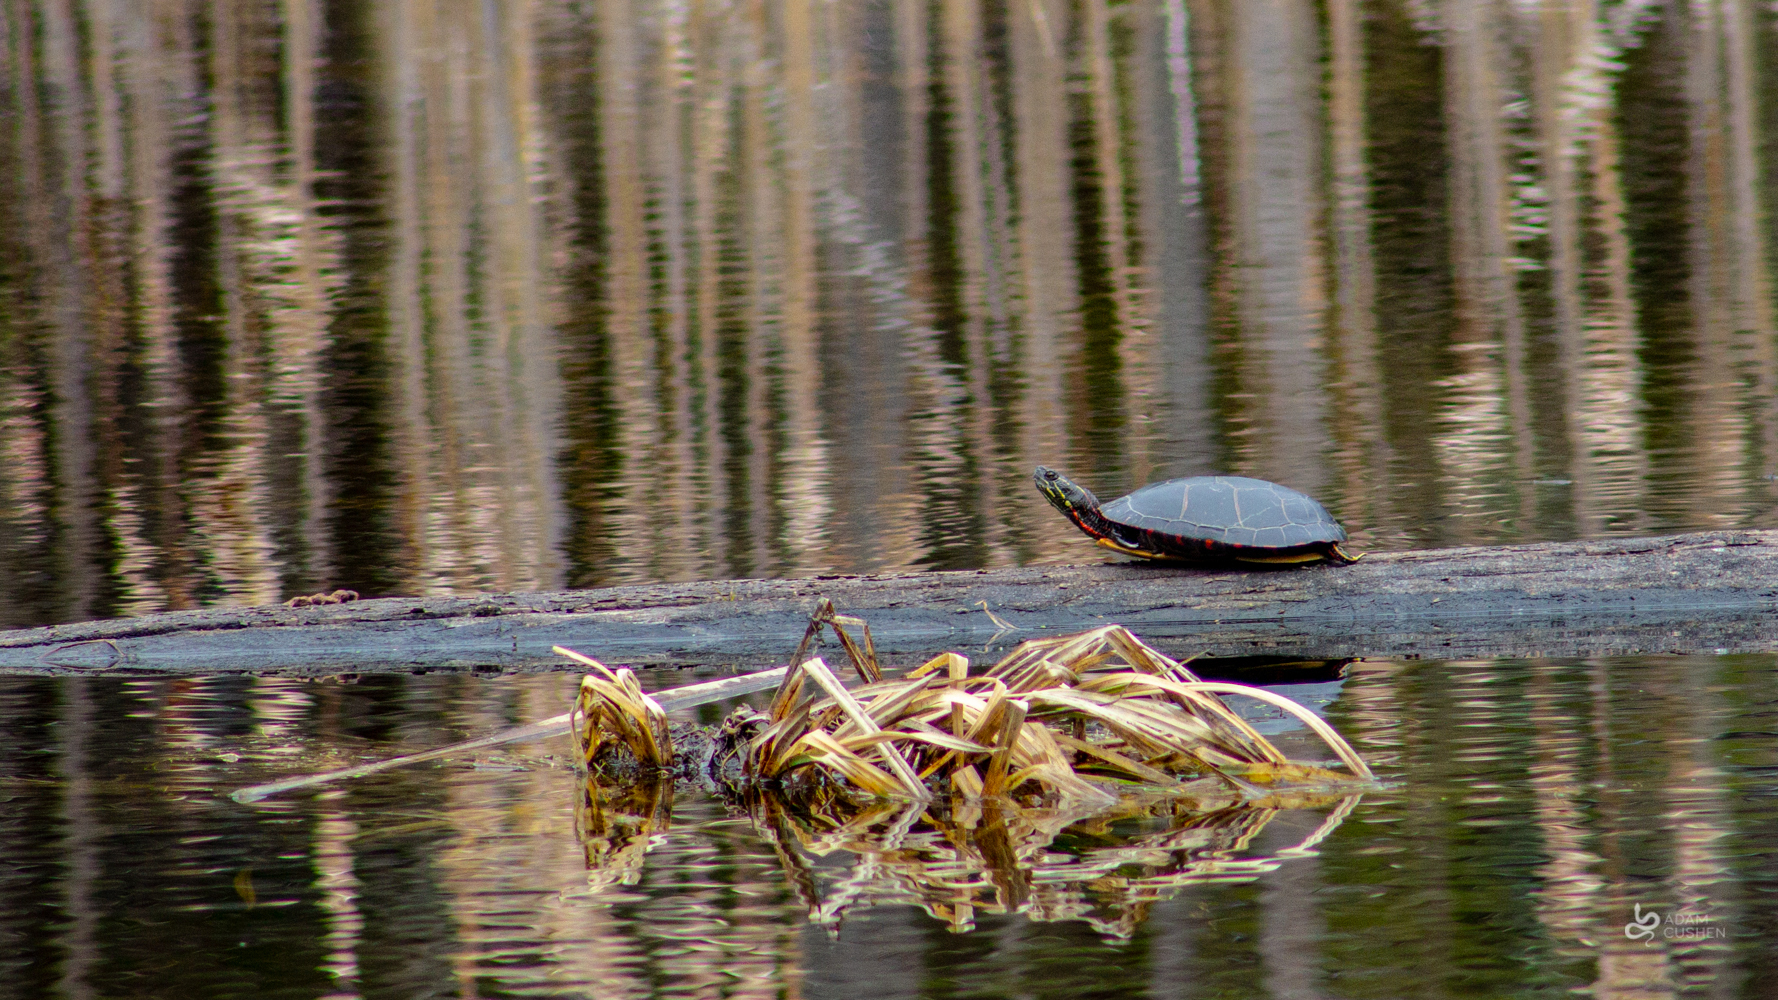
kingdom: Animalia
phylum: Chordata
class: Testudines
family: Emydidae
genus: Chrysemys
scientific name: Chrysemys picta
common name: Painted turtle
